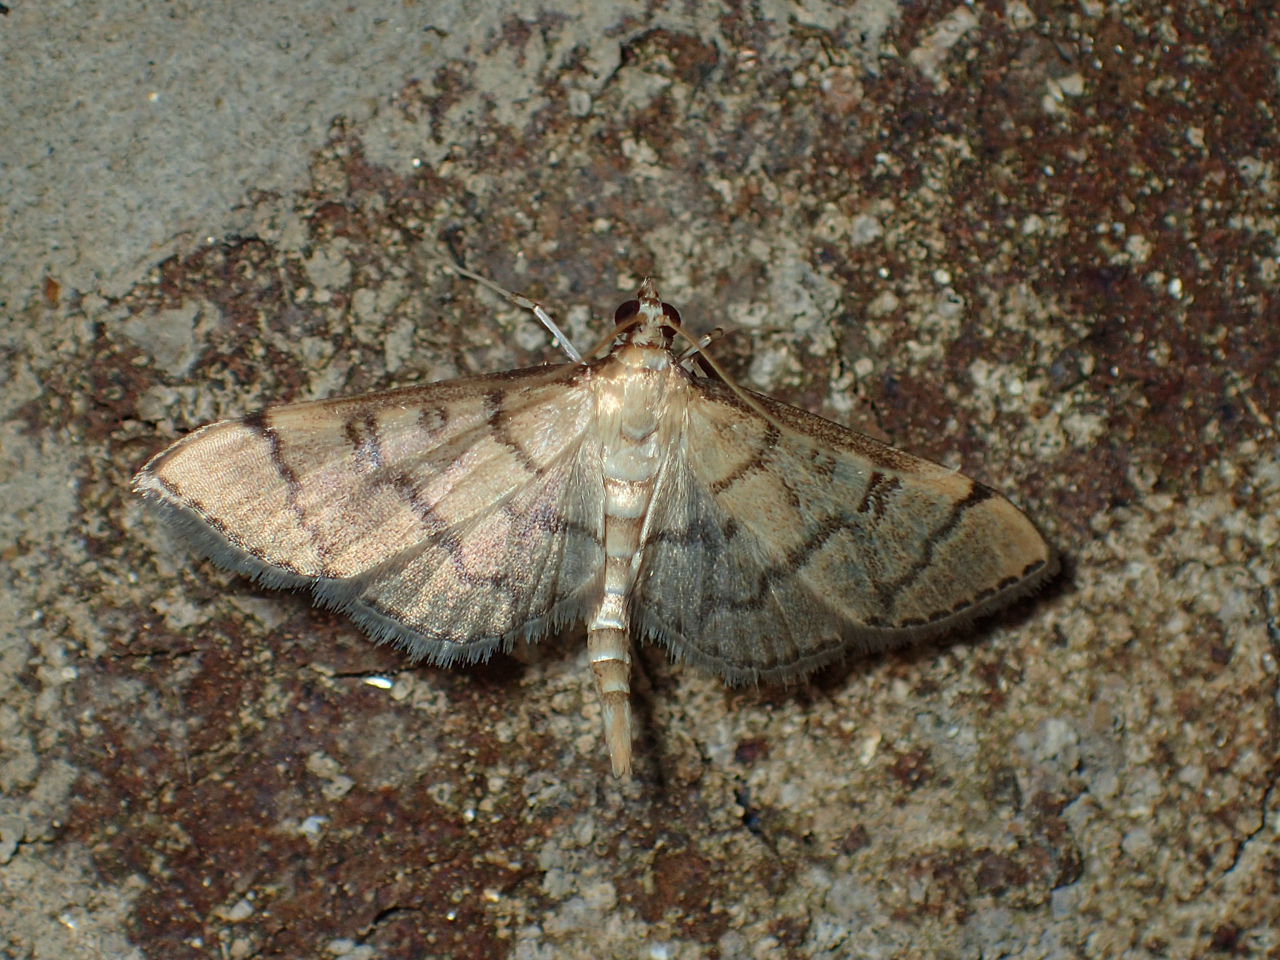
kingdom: Animalia
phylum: Arthropoda
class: Insecta
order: Lepidoptera
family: Crambidae
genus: Lamprosema
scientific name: Lamprosema Blepharomastix ranalis
